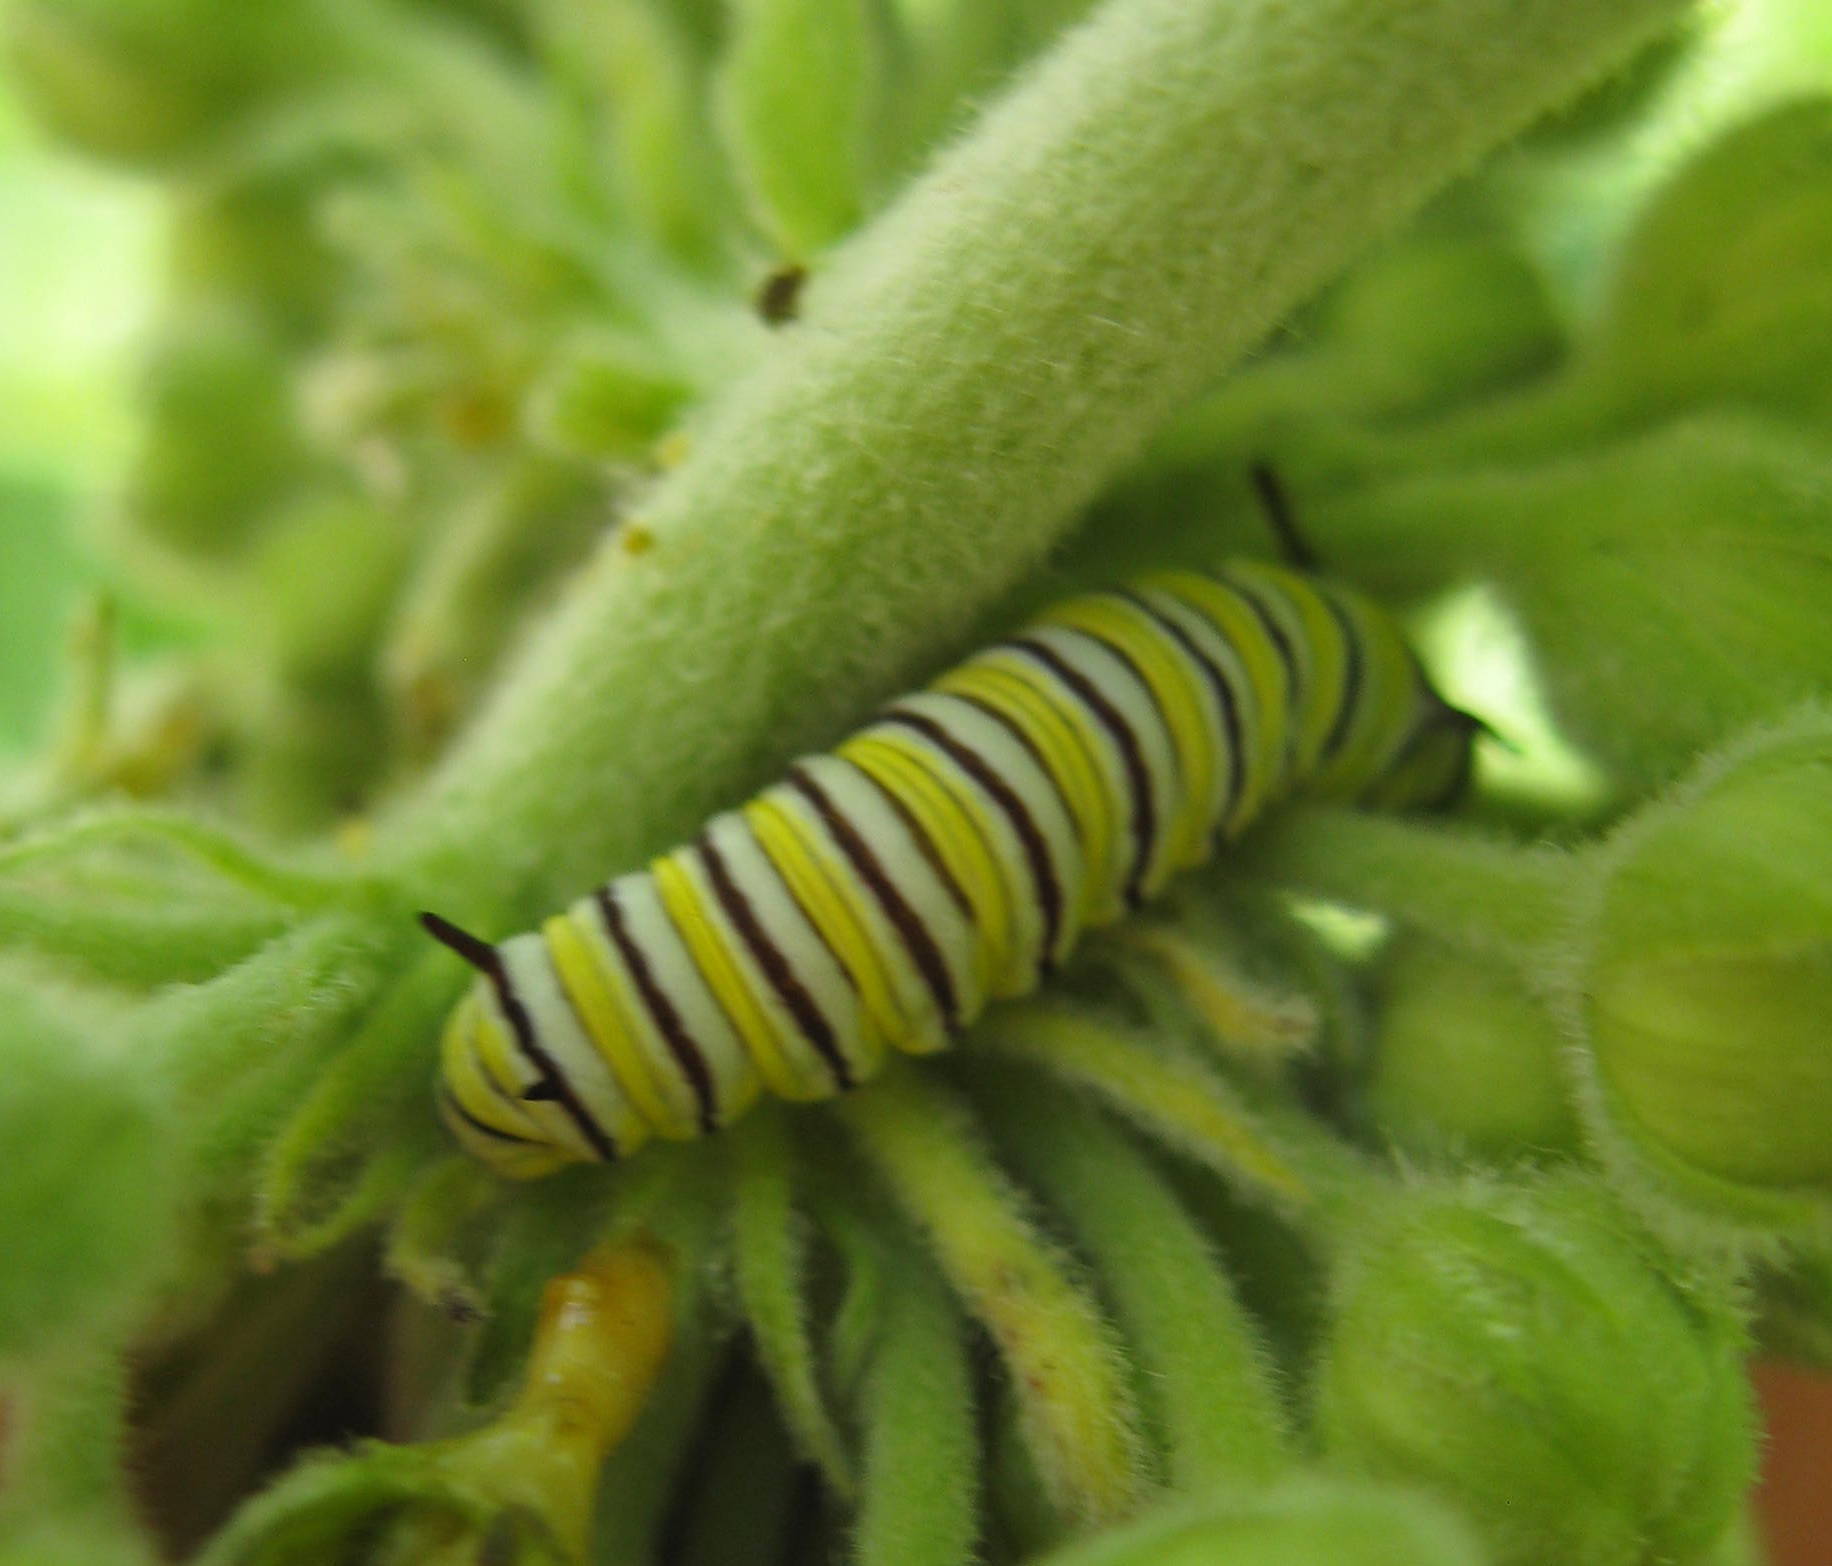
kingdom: Animalia
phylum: Arthropoda
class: Insecta
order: Lepidoptera
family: Nymphalidae
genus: Danaus
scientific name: Danaus plexippus
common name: Monarch
